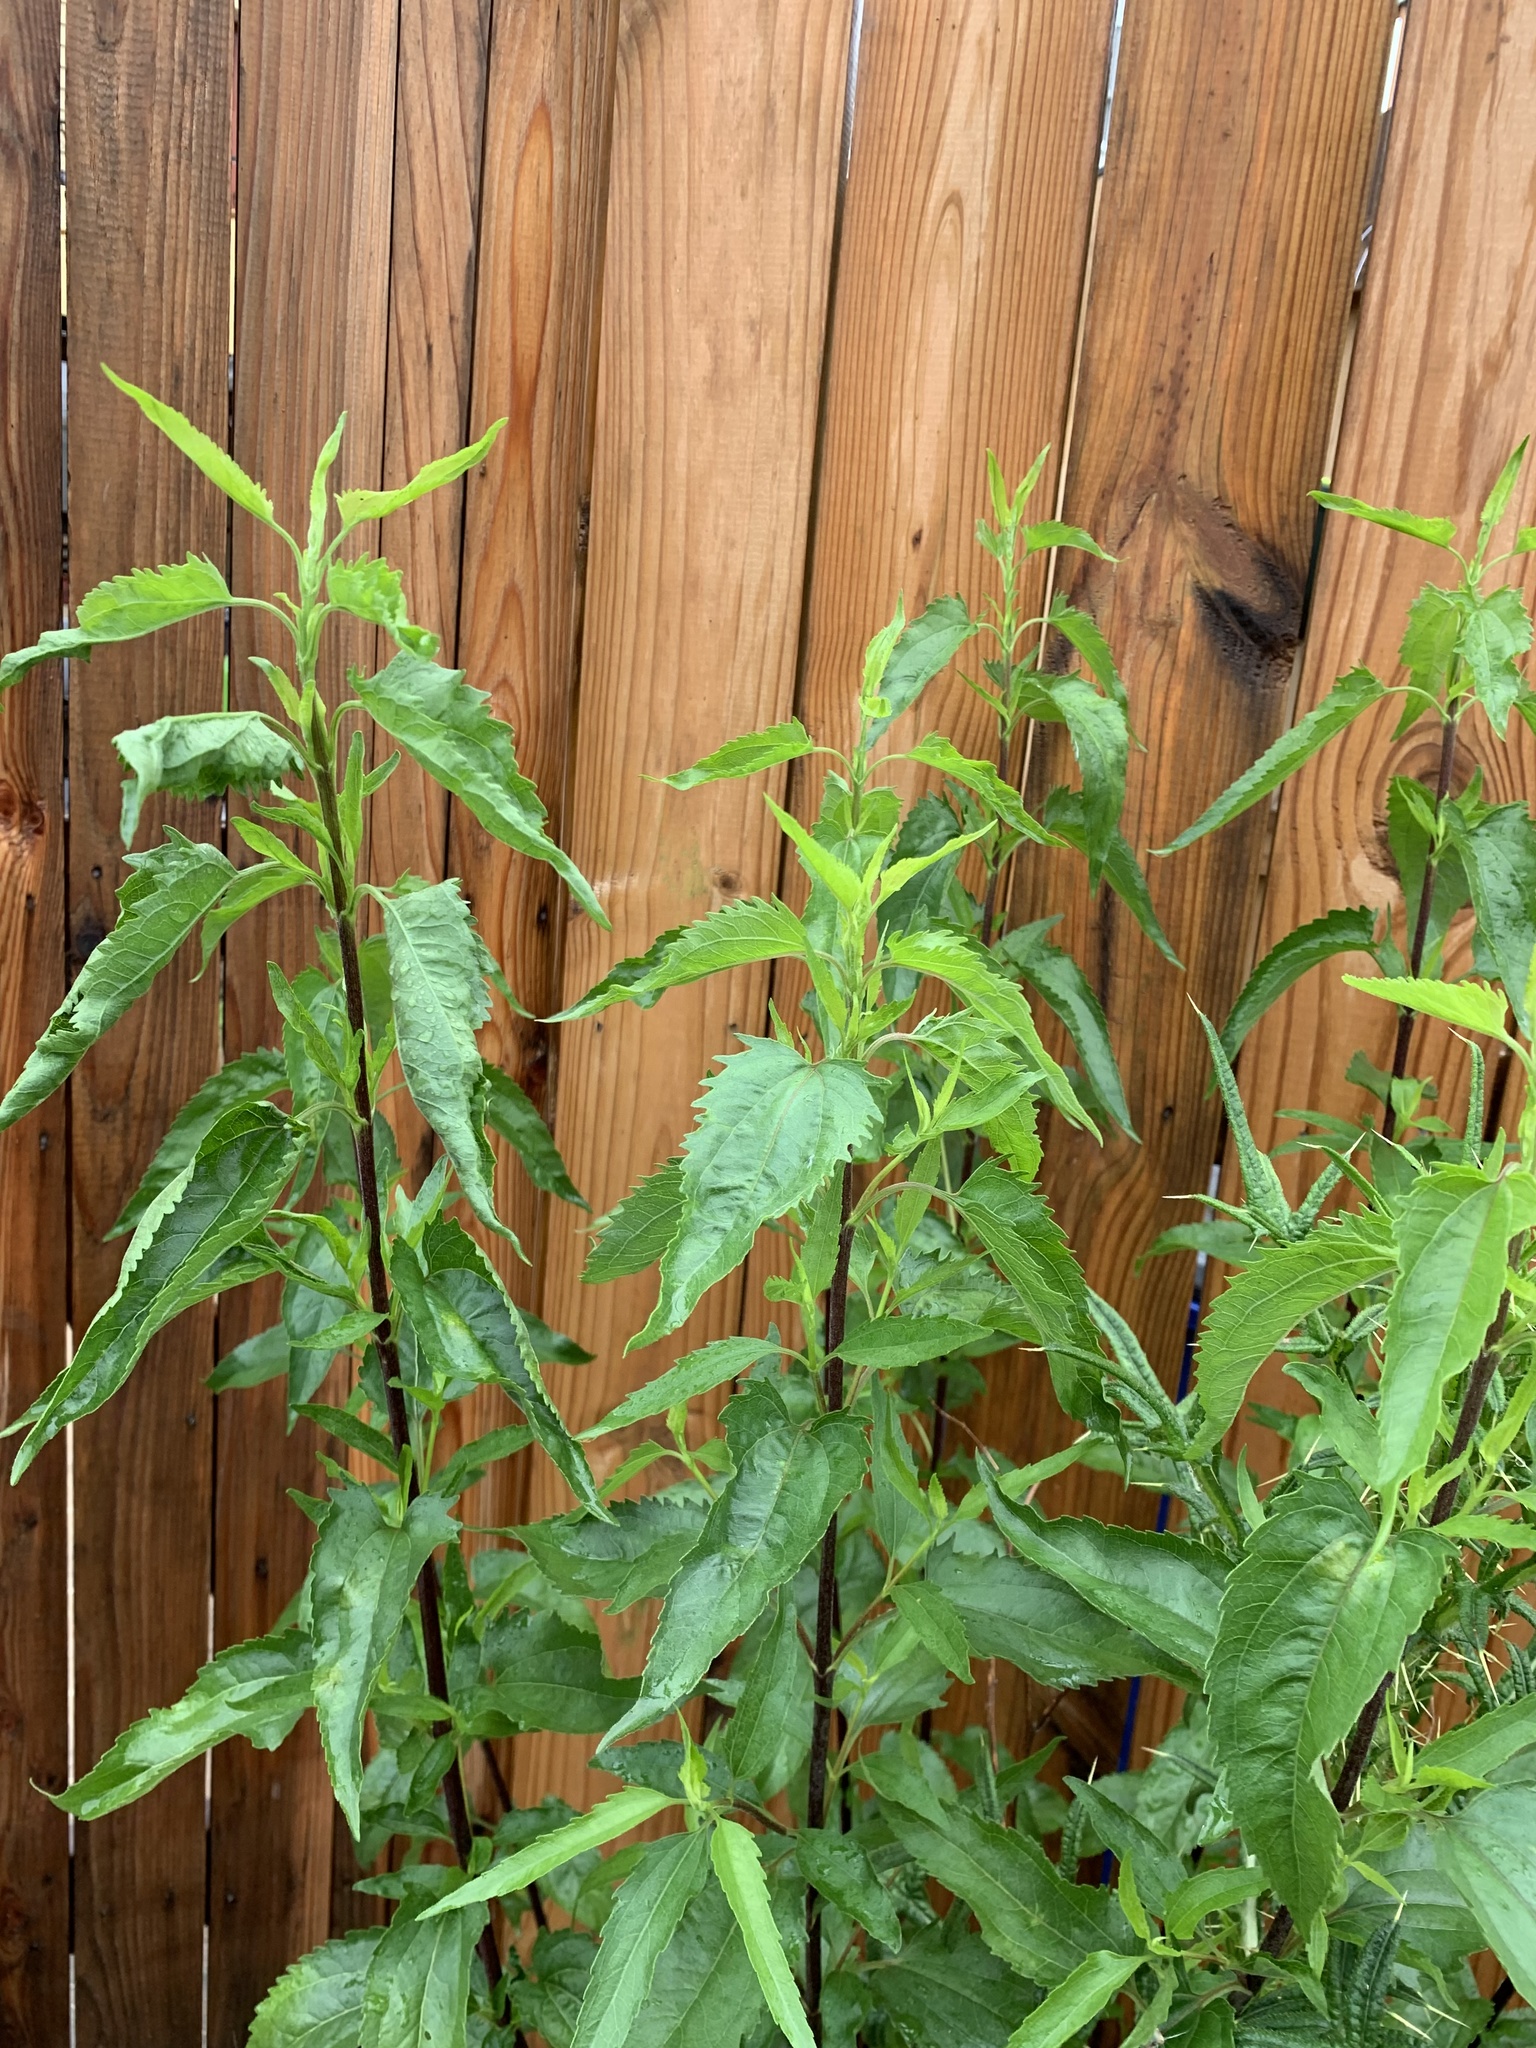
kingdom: Plantae
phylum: Tracheophyta
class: Magnoliopsida
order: Asterales
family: Asteraceae
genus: Eupatorium
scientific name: Eupatorium serotinum
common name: Late boneset
